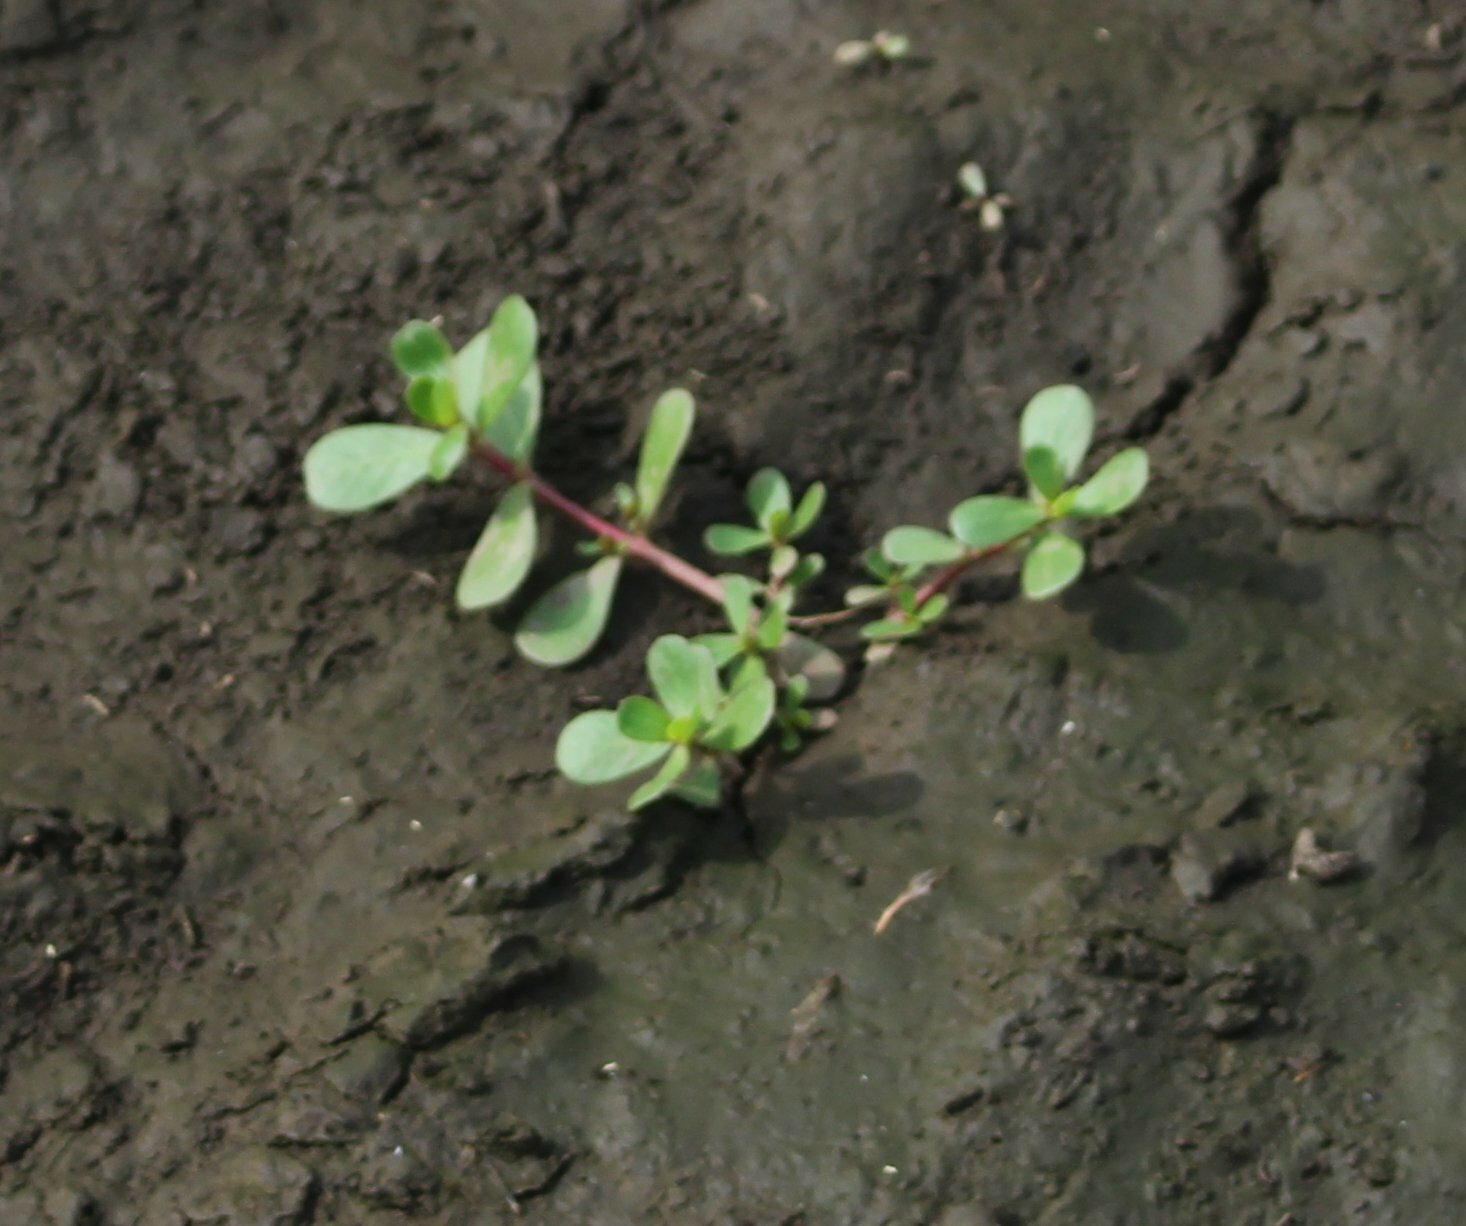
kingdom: Plantae
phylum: Tracheophyta
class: Magnoliopsida
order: Caryophyllales
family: Portulacaceae
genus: Portulaca
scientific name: Portulaca oleracea
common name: Common purslane
